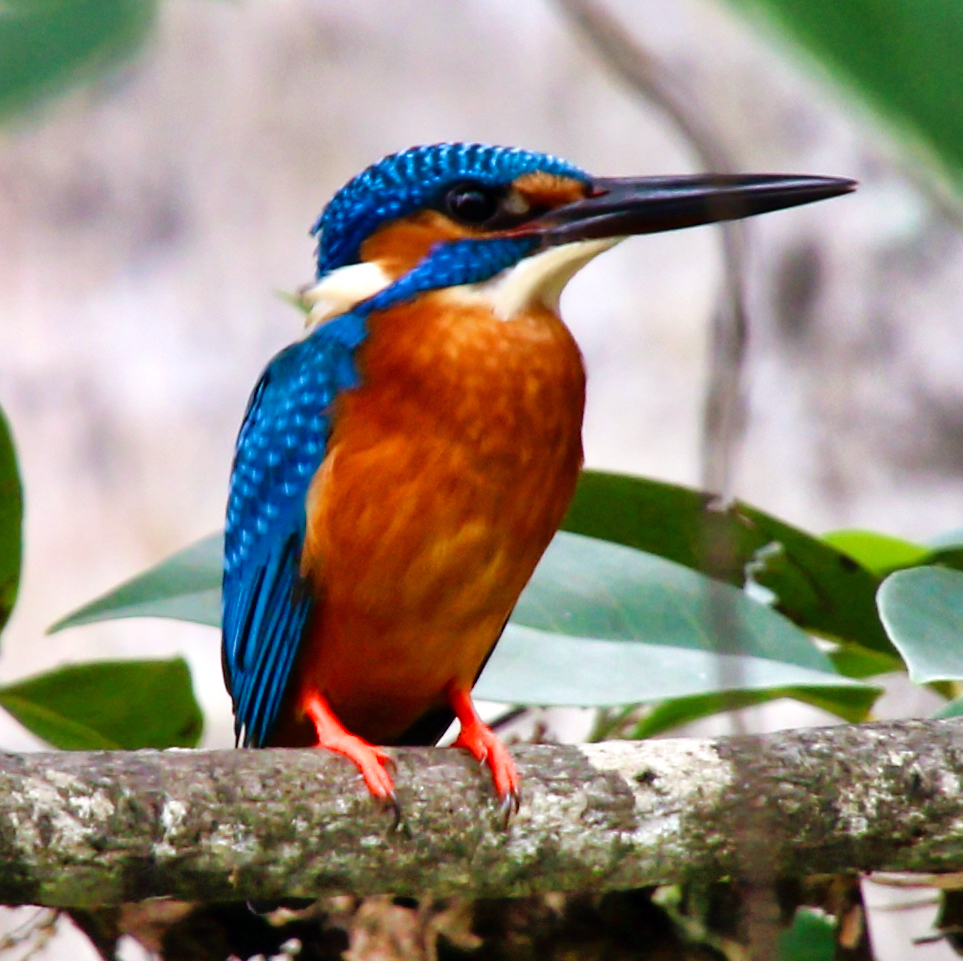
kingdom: Animalia
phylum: Chordata
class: Aves
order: Coraciiformes
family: Alcedinidae
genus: Alcedo
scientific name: Alcedo atthis
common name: Common kingfisher
